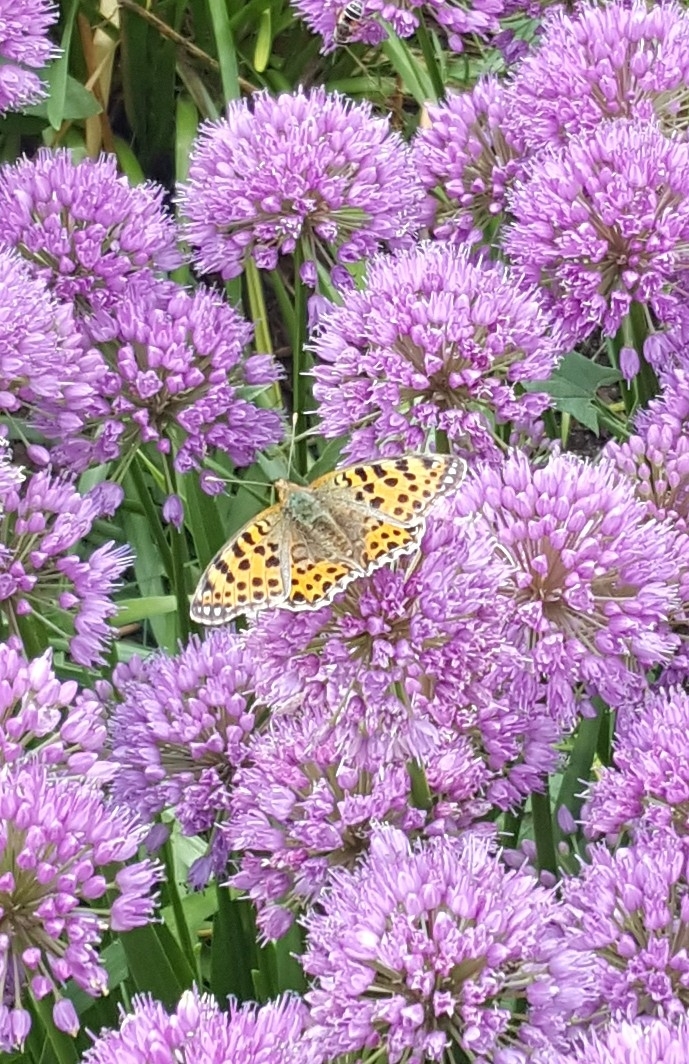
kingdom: Animalia
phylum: Arthropoda
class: Insecta
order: Lepidoptera
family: Nymphalidae
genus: Issoria
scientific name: Issoria lathonia
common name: Queen of spain fritillary
